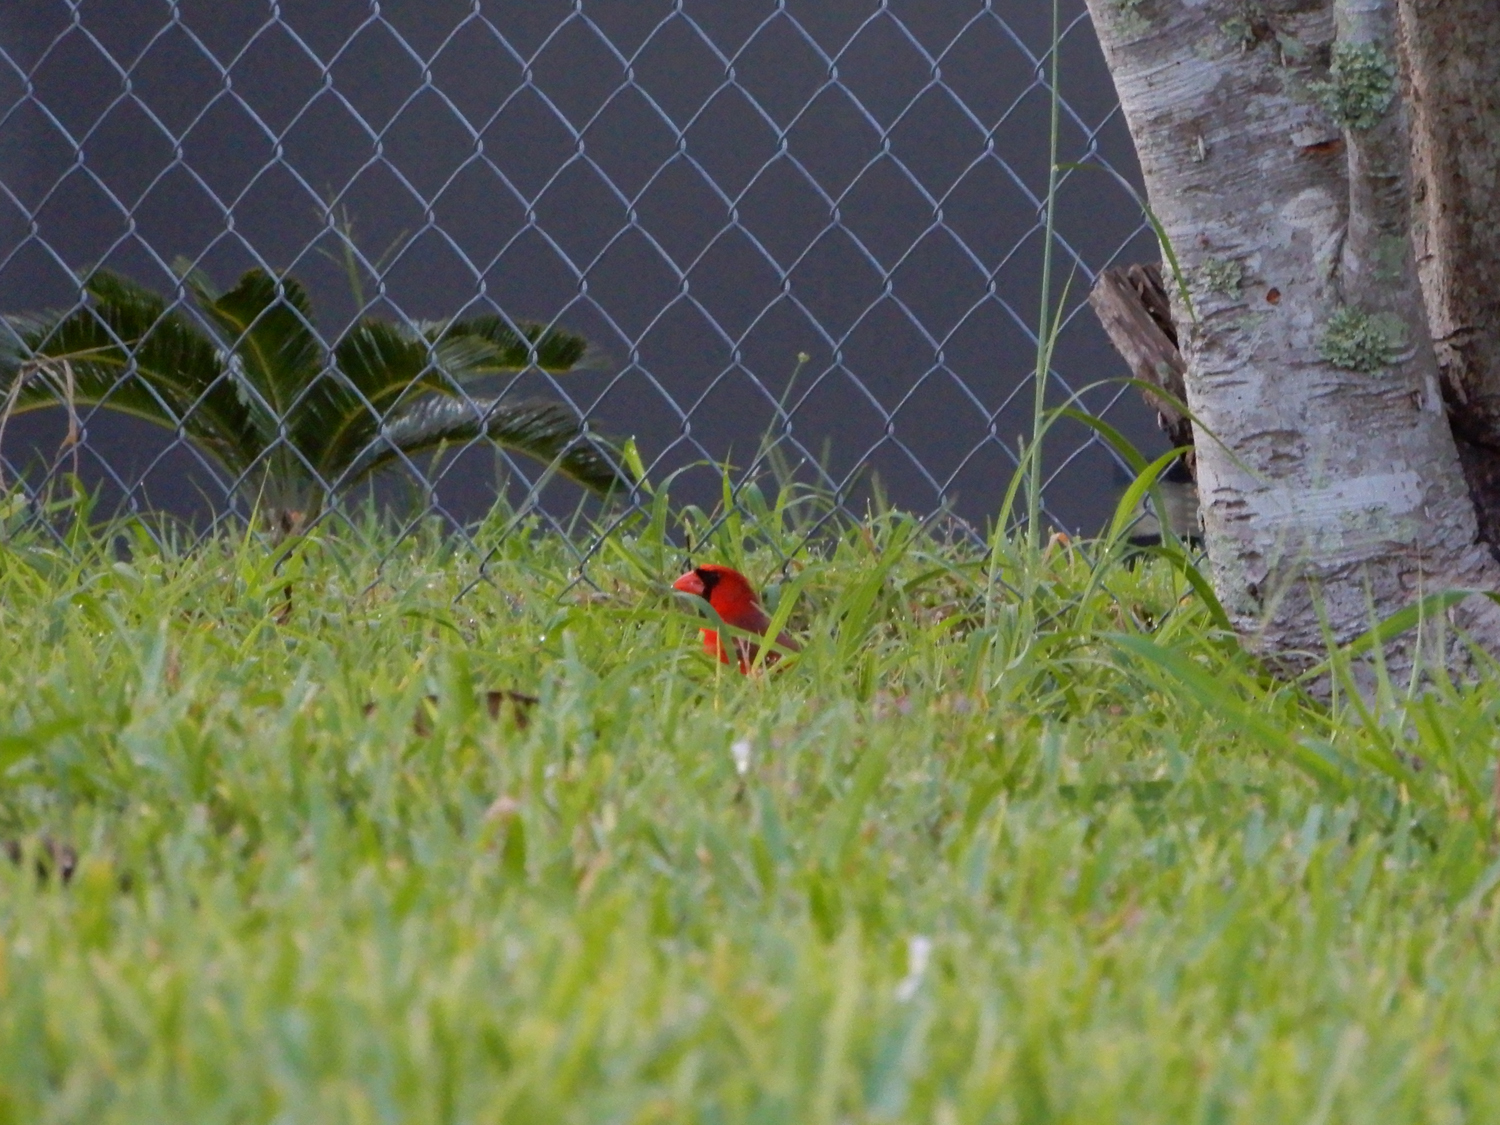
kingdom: Animalia
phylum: Chordata
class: Aves
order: Passeriformes
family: Cardinalidae
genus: Cardinalis
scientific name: Cardinalis cardinalis
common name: Northern cardinal
